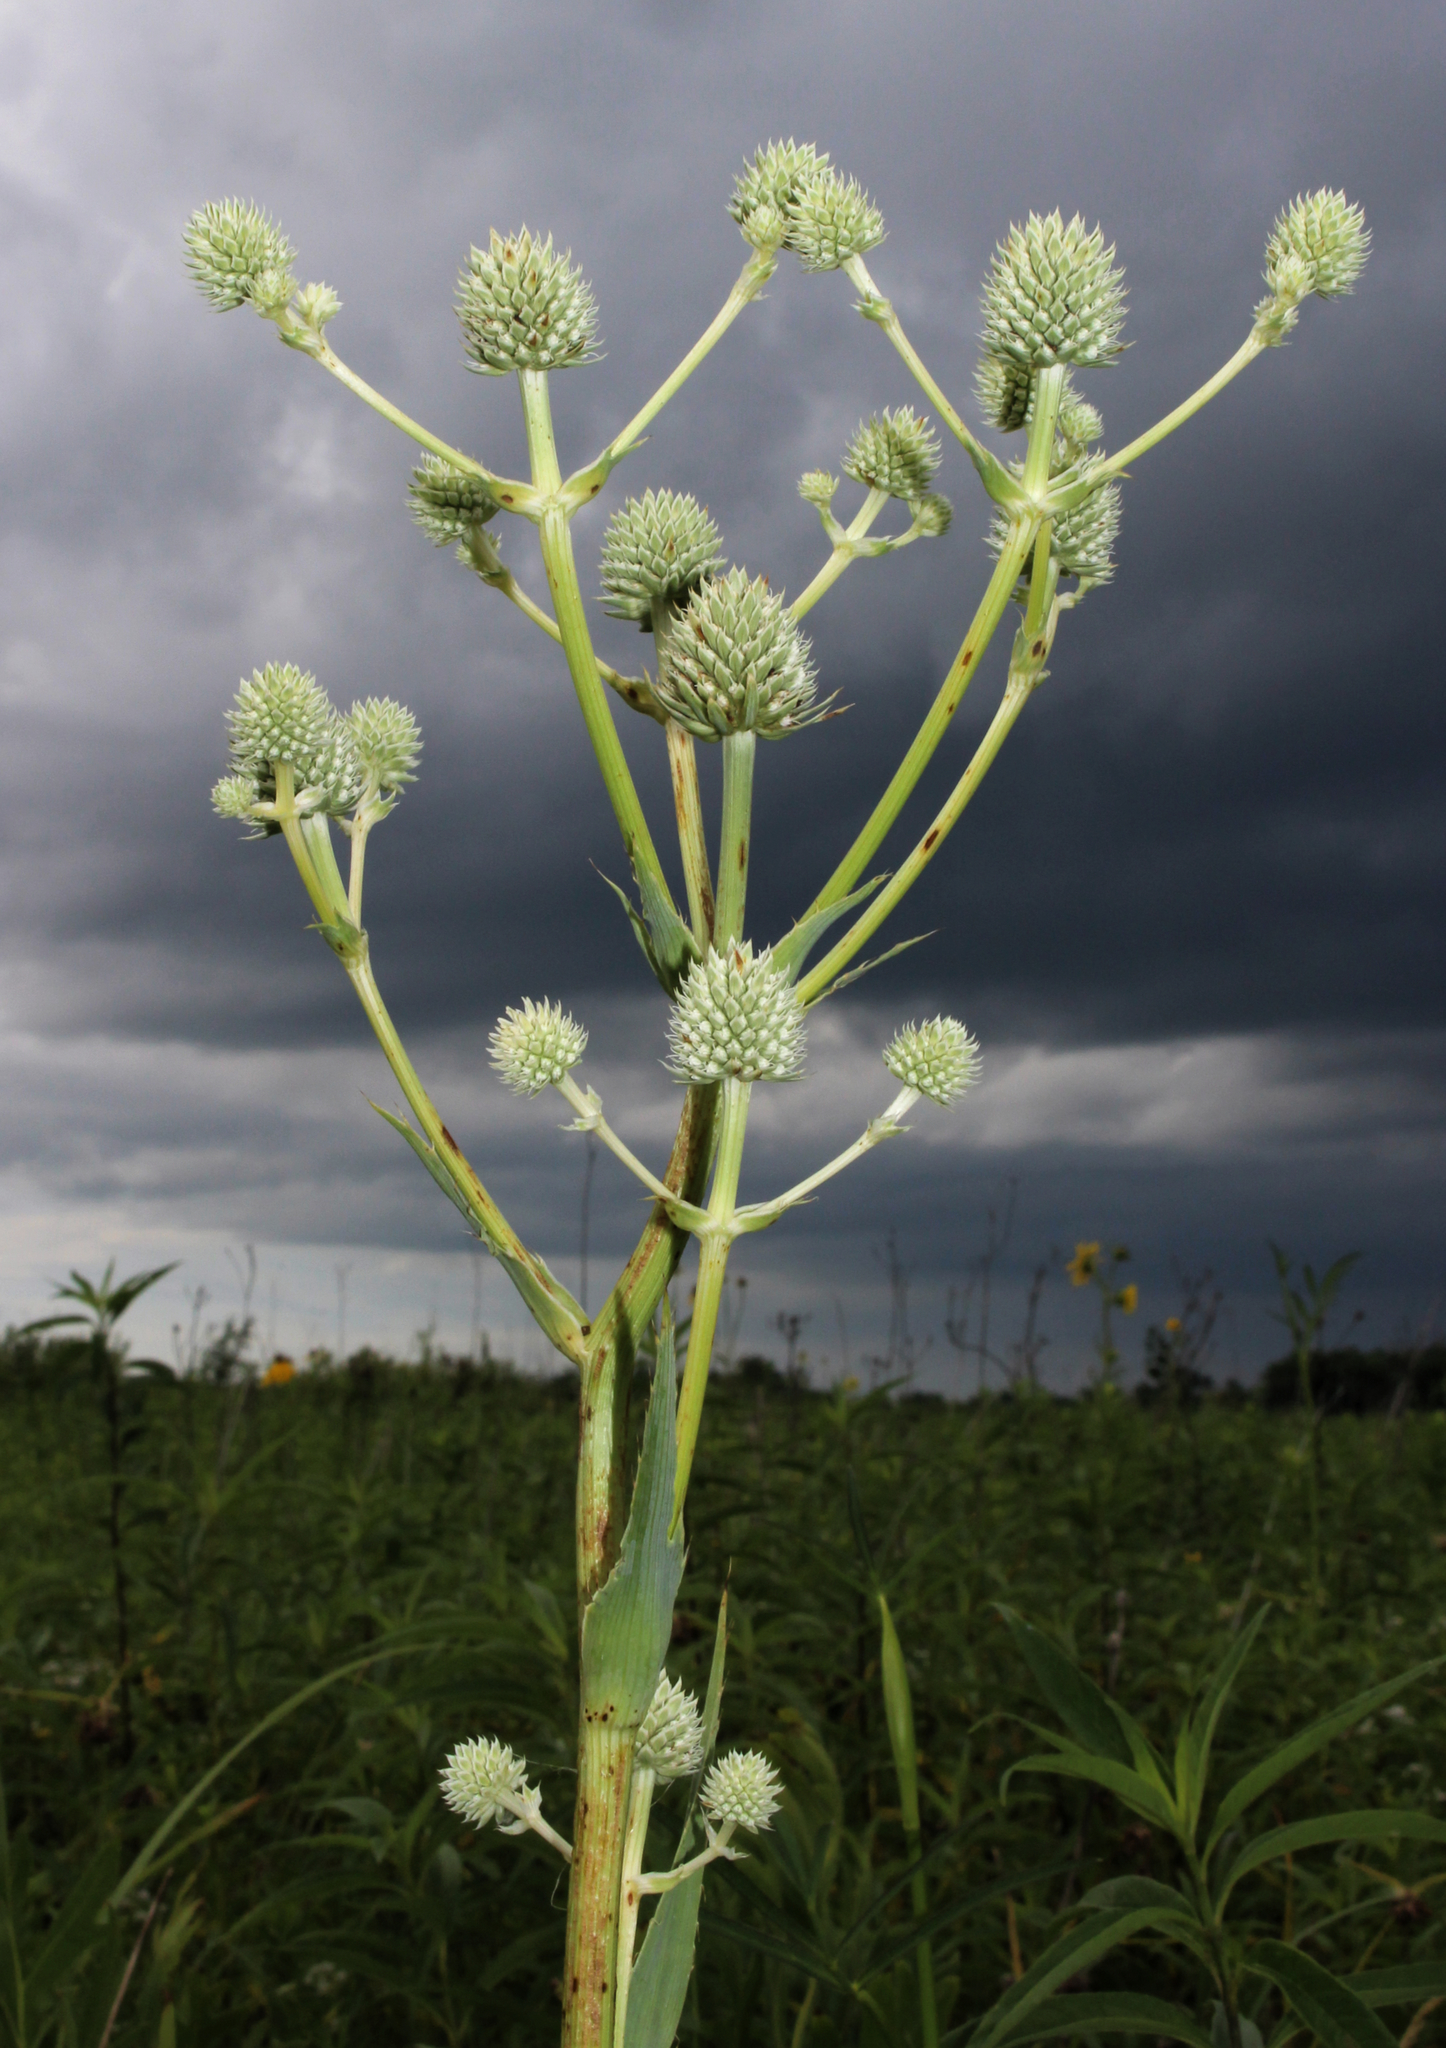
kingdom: Plantae
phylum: Tracheophyta
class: Magnoliopsida
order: Apiales
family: Apiaceae
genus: Eryngium
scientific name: Eryngium yuccifolium
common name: Button eryngo
